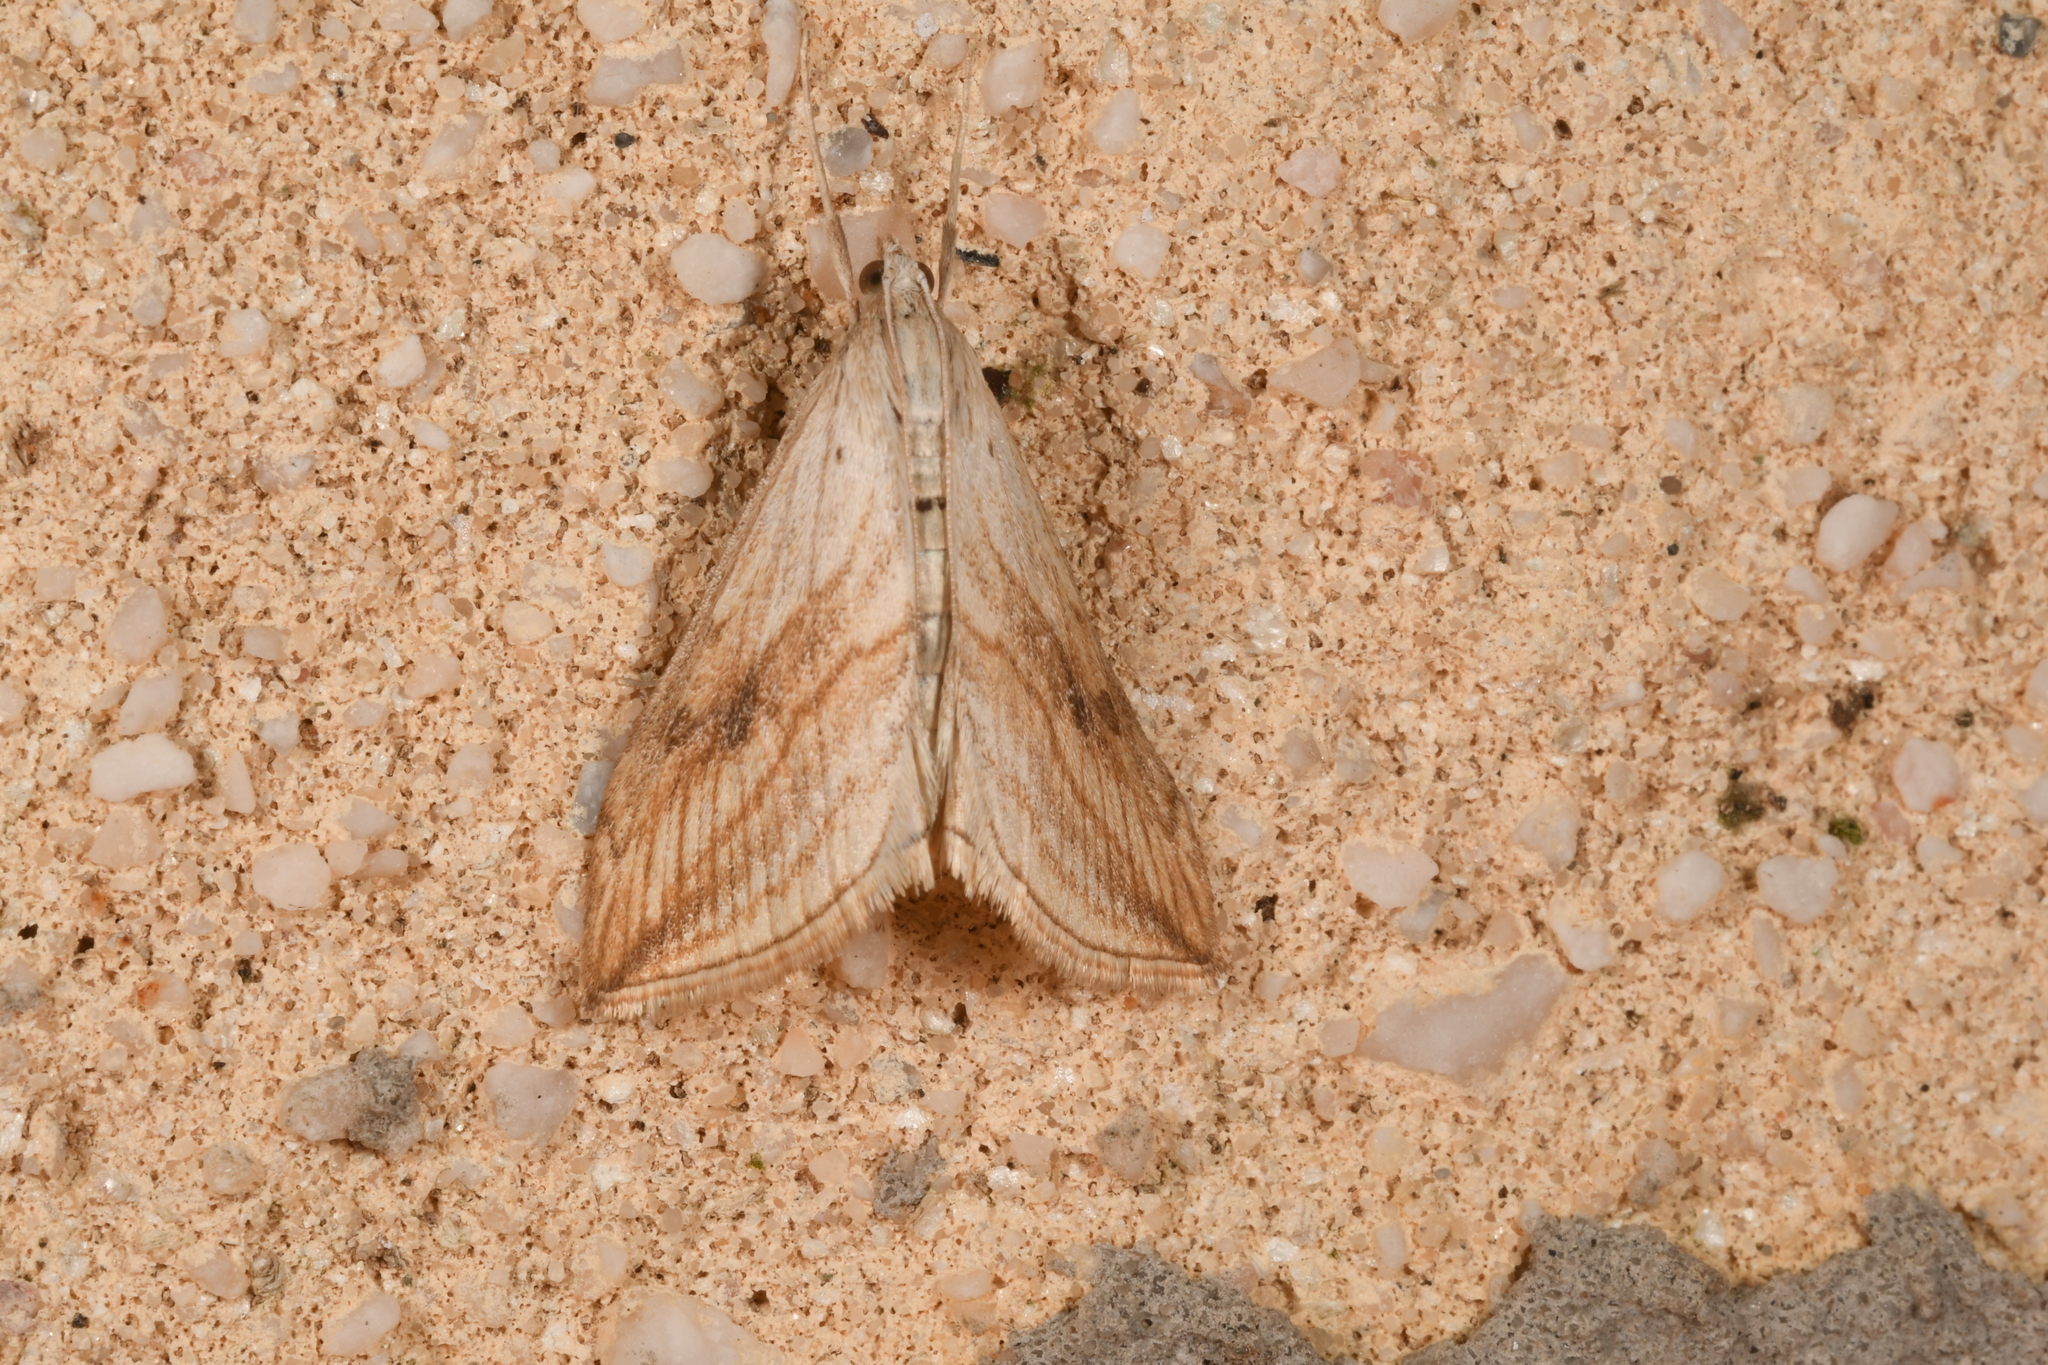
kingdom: Animalia
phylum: Arthropoda
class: Insecta
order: Lepidoptera
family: Crambidae
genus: Evergestis
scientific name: Evergestis forficalis
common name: Garden pebble
